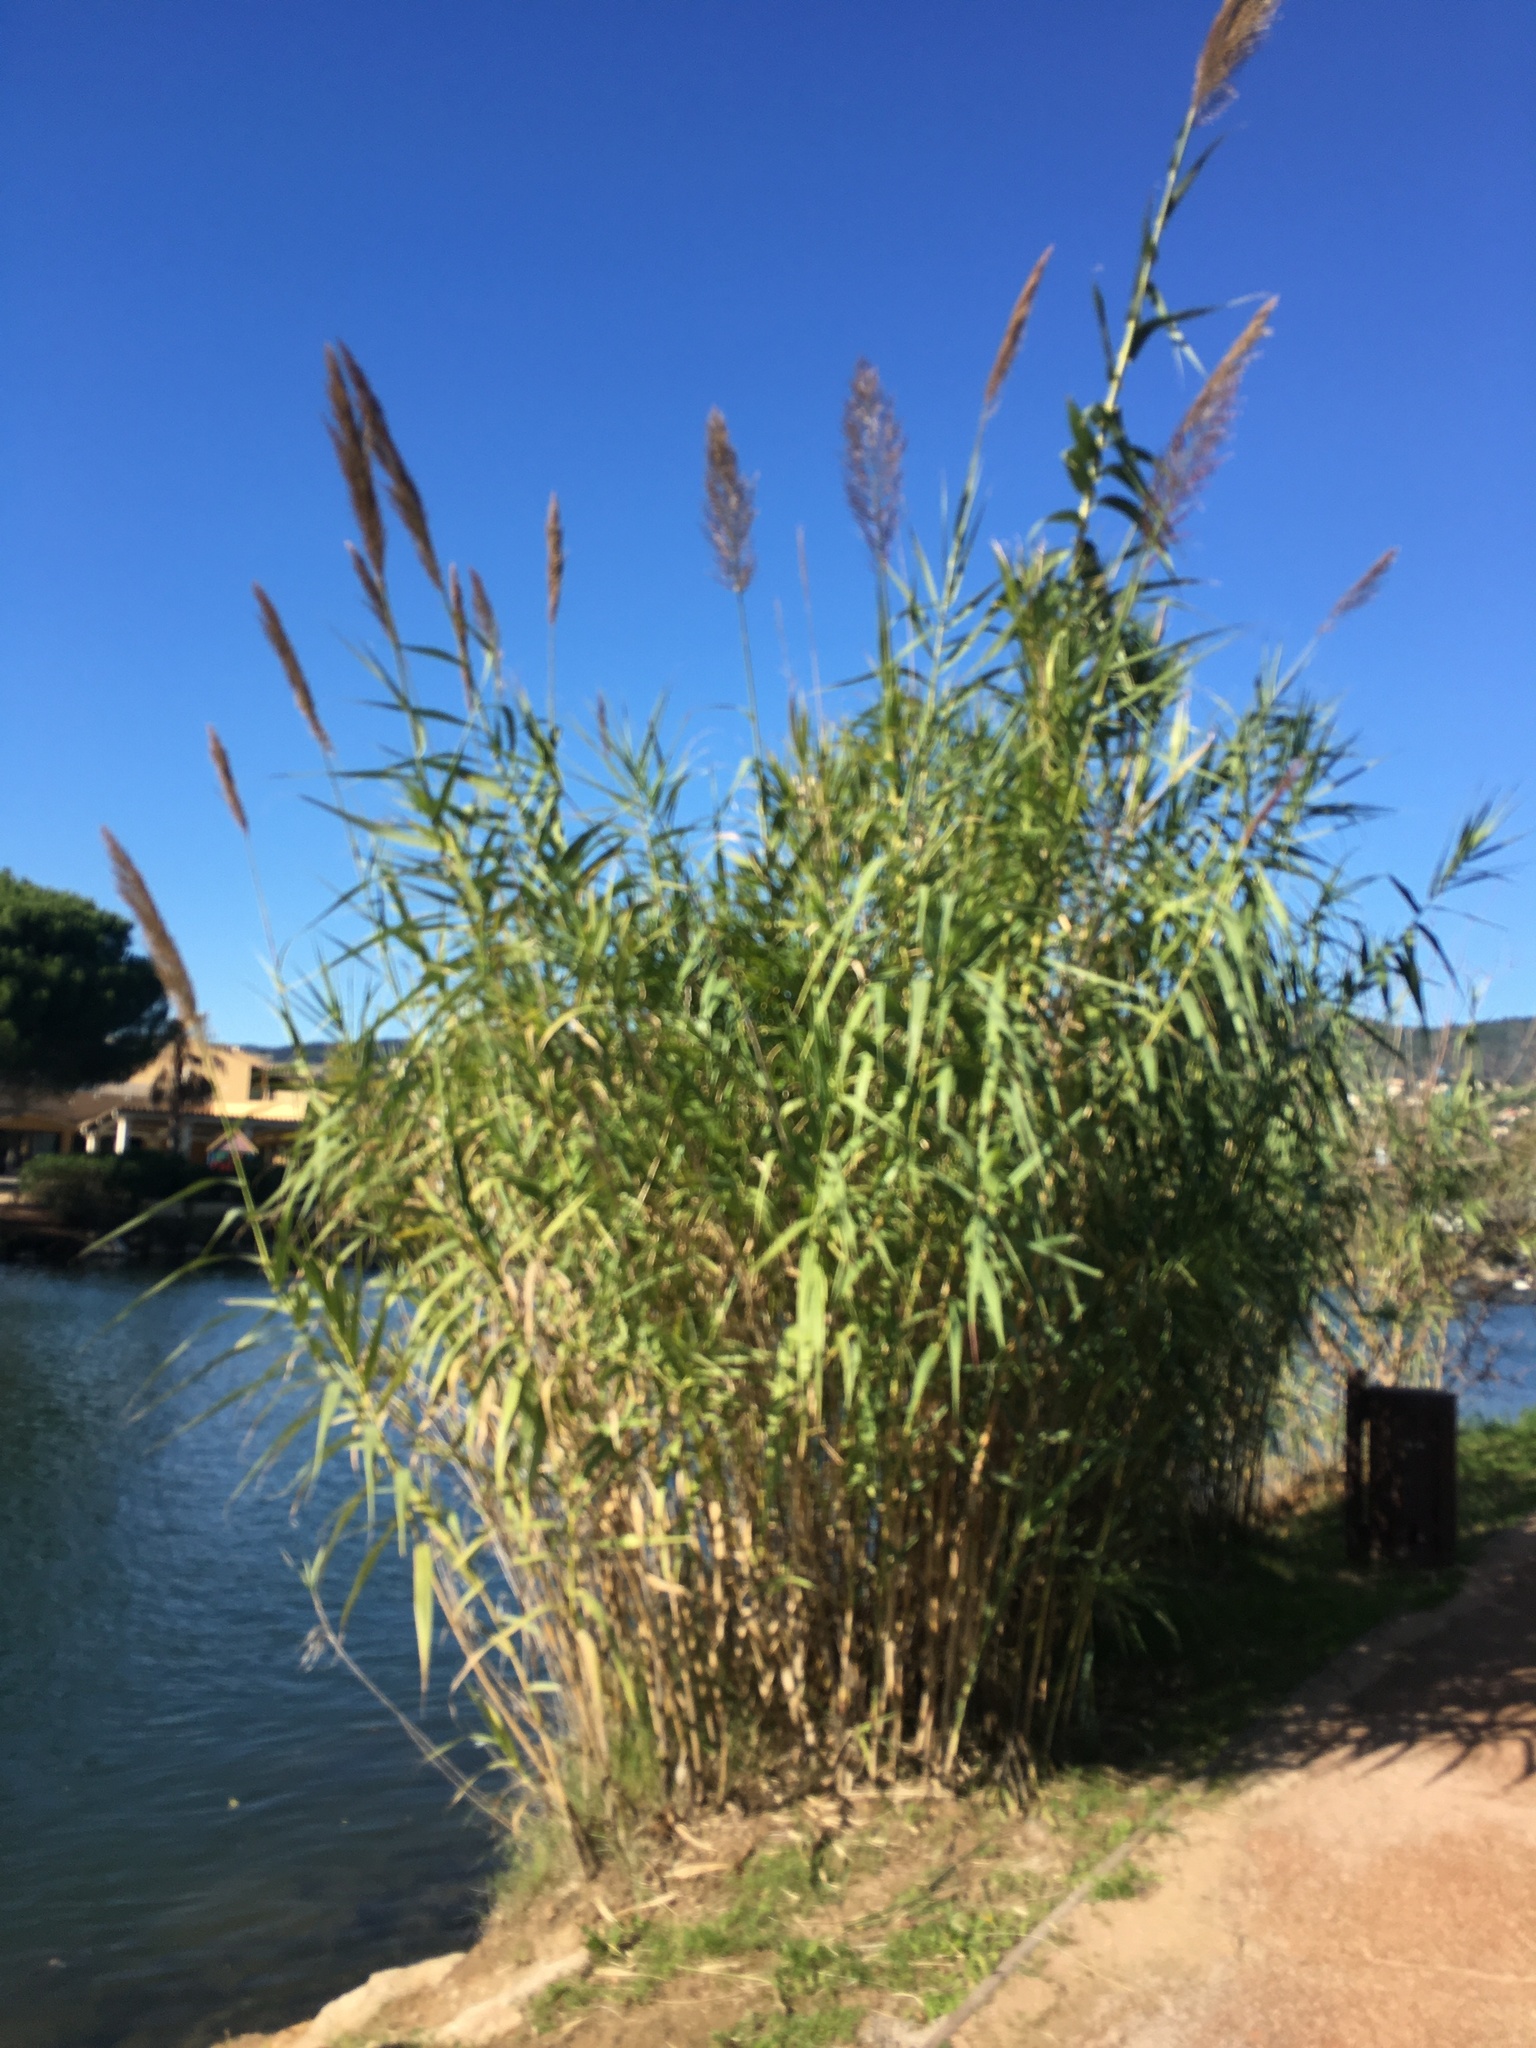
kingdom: Plantae
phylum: Tracheophyta
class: Liliopsida
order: Poales
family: Poaceae
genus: Arundo
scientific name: Arundo donax
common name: Giant reed
